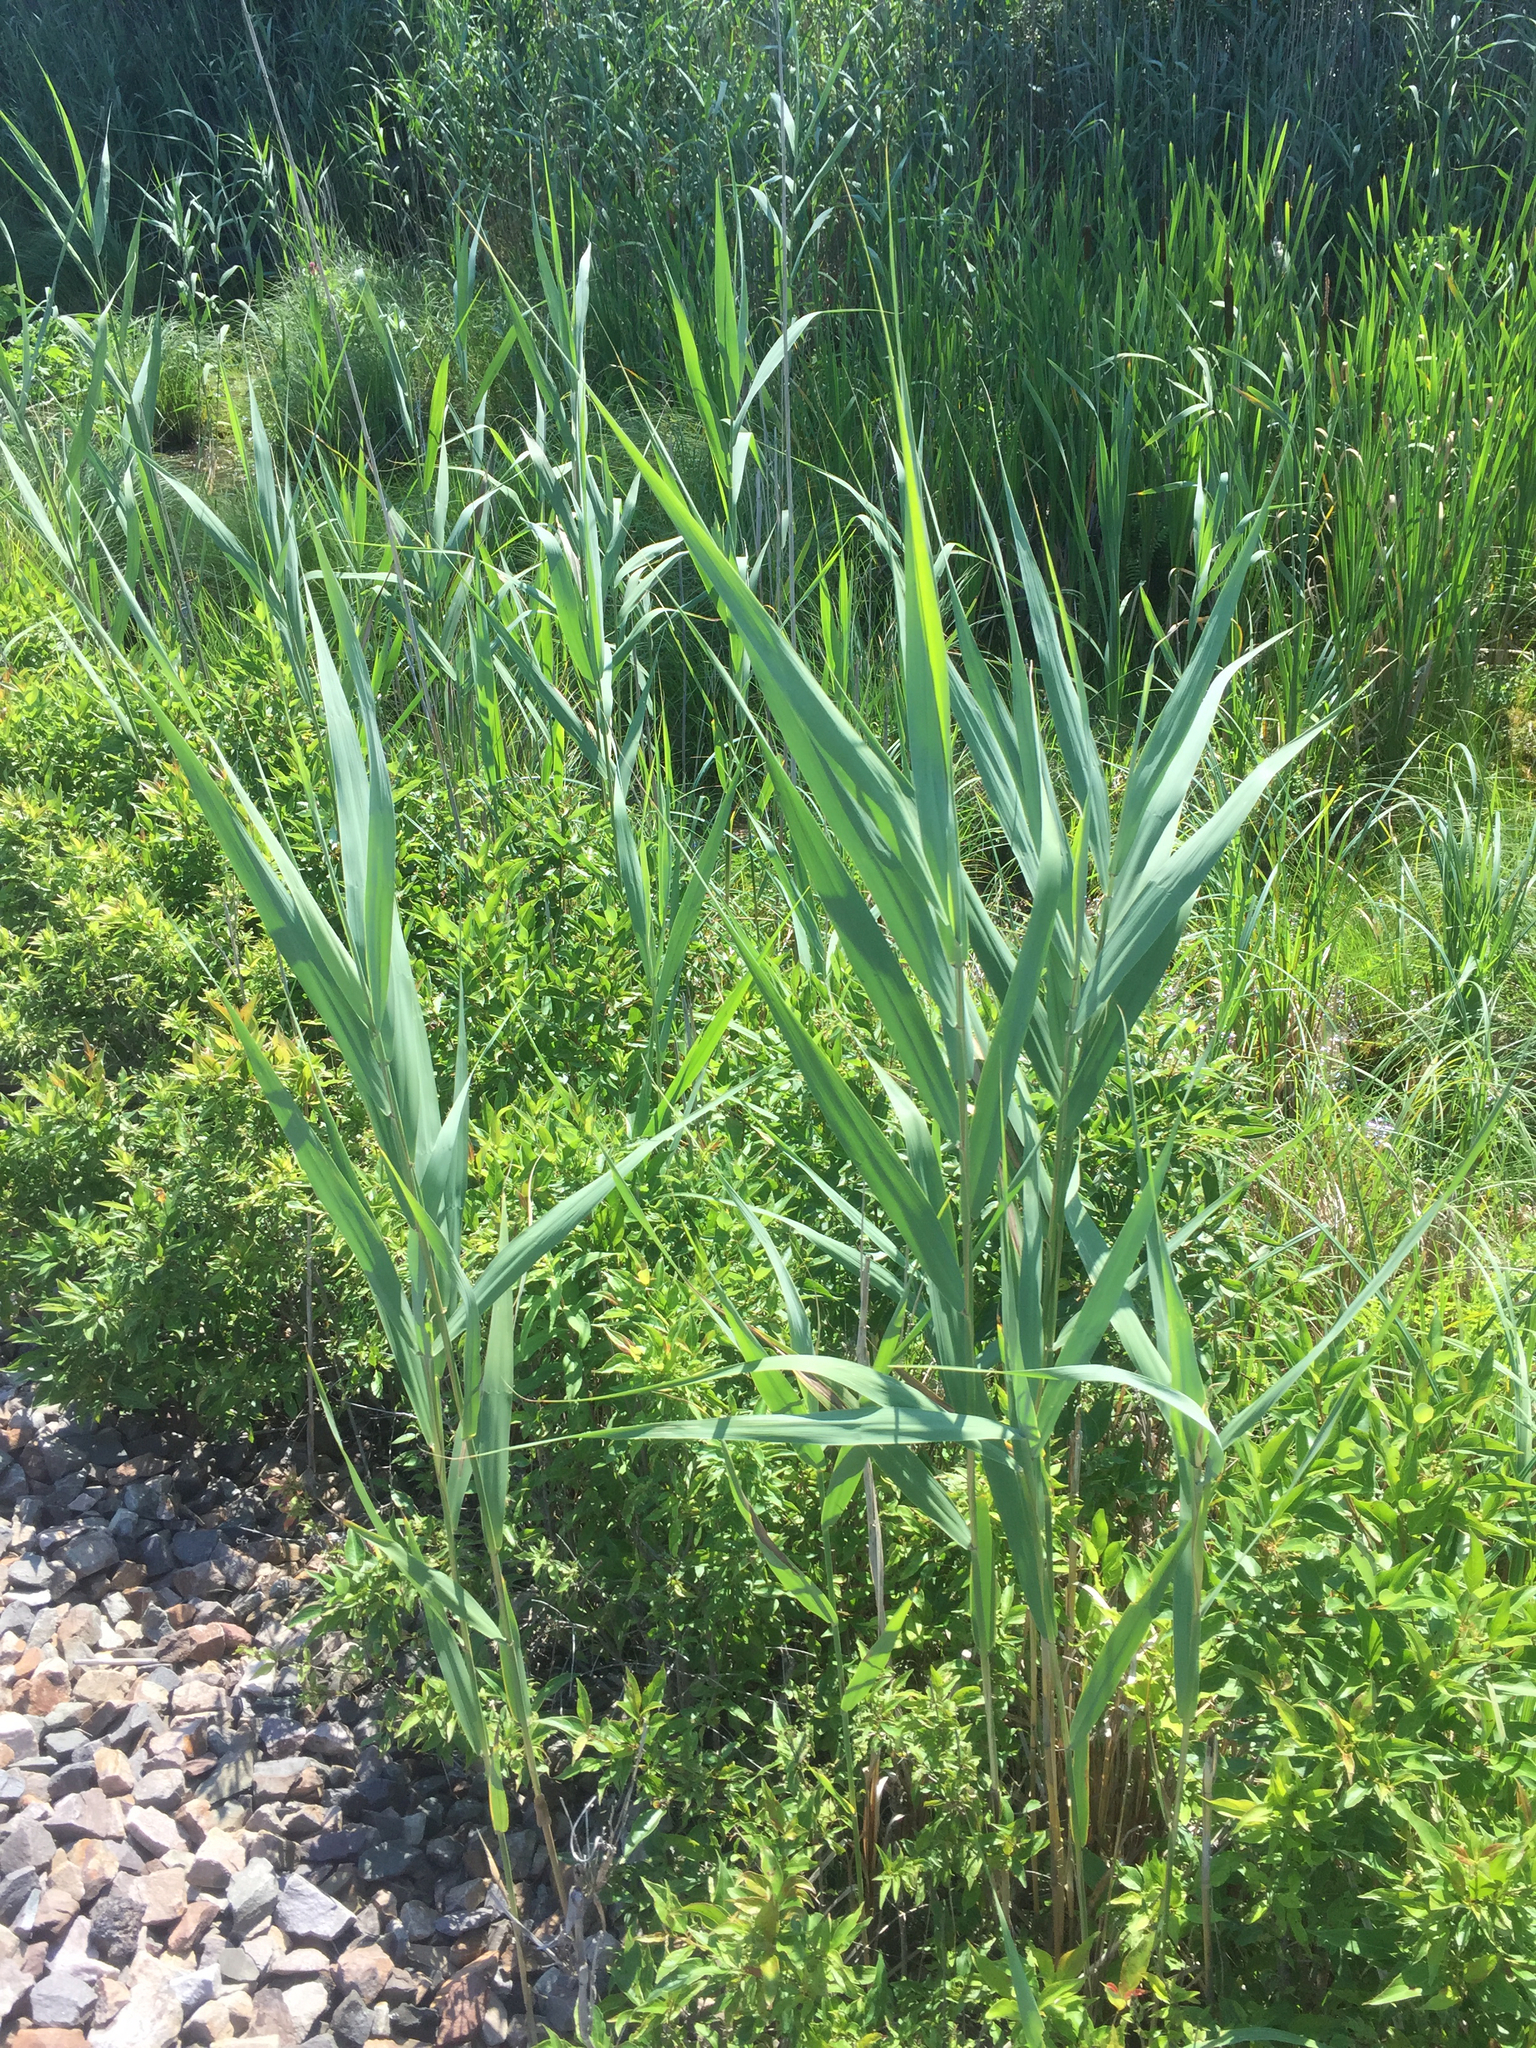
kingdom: Plantae
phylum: Tracheophyta
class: Liliopsida
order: Poales
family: Poaceae
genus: Phragmites
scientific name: Phragmites australis
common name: Common reed
